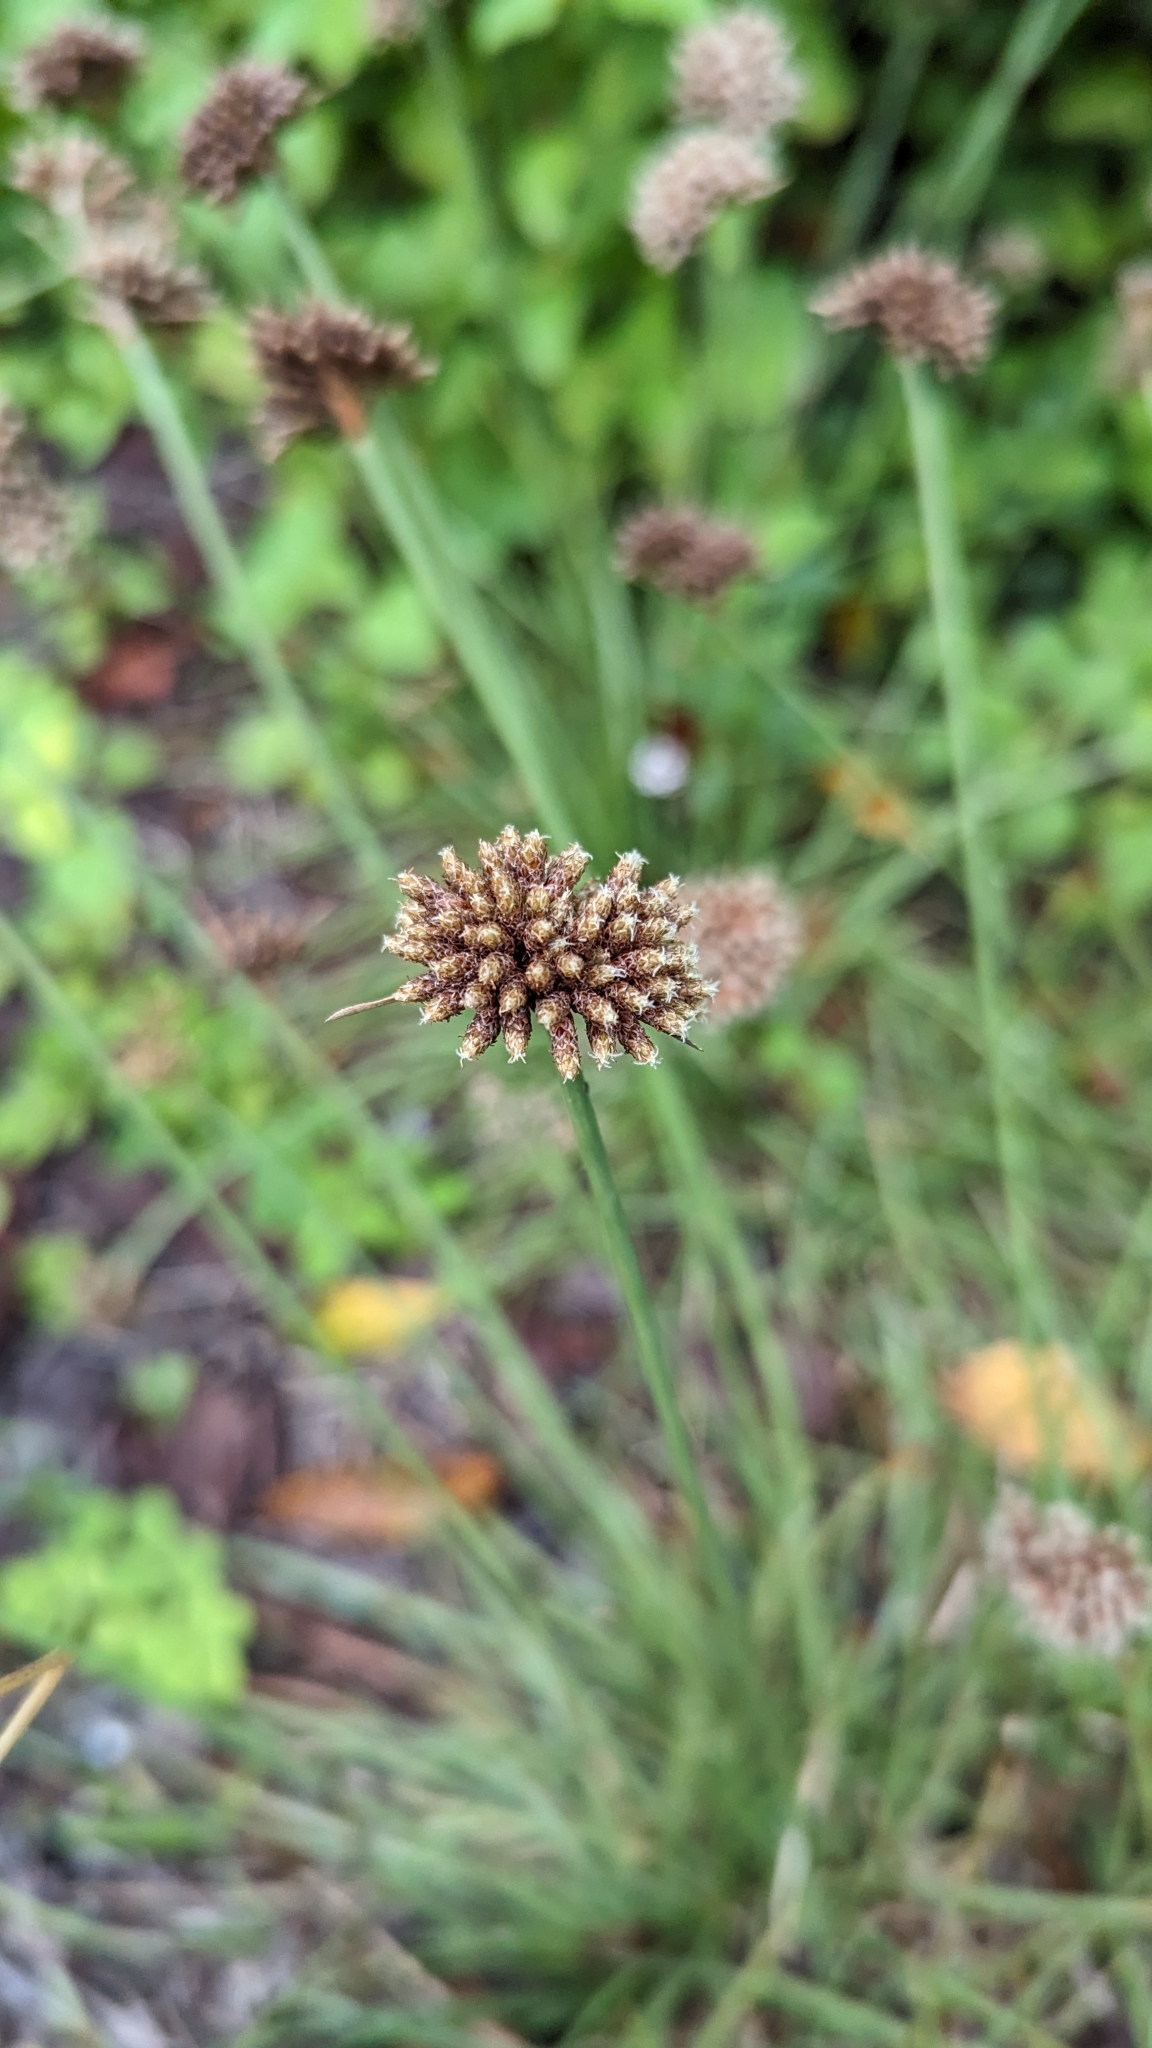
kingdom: Plantae
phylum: Tracheophyta
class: Liliopsida
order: Poales
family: Cyperaceae
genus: Fimbristylis
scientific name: Fimbristylis cymosa
